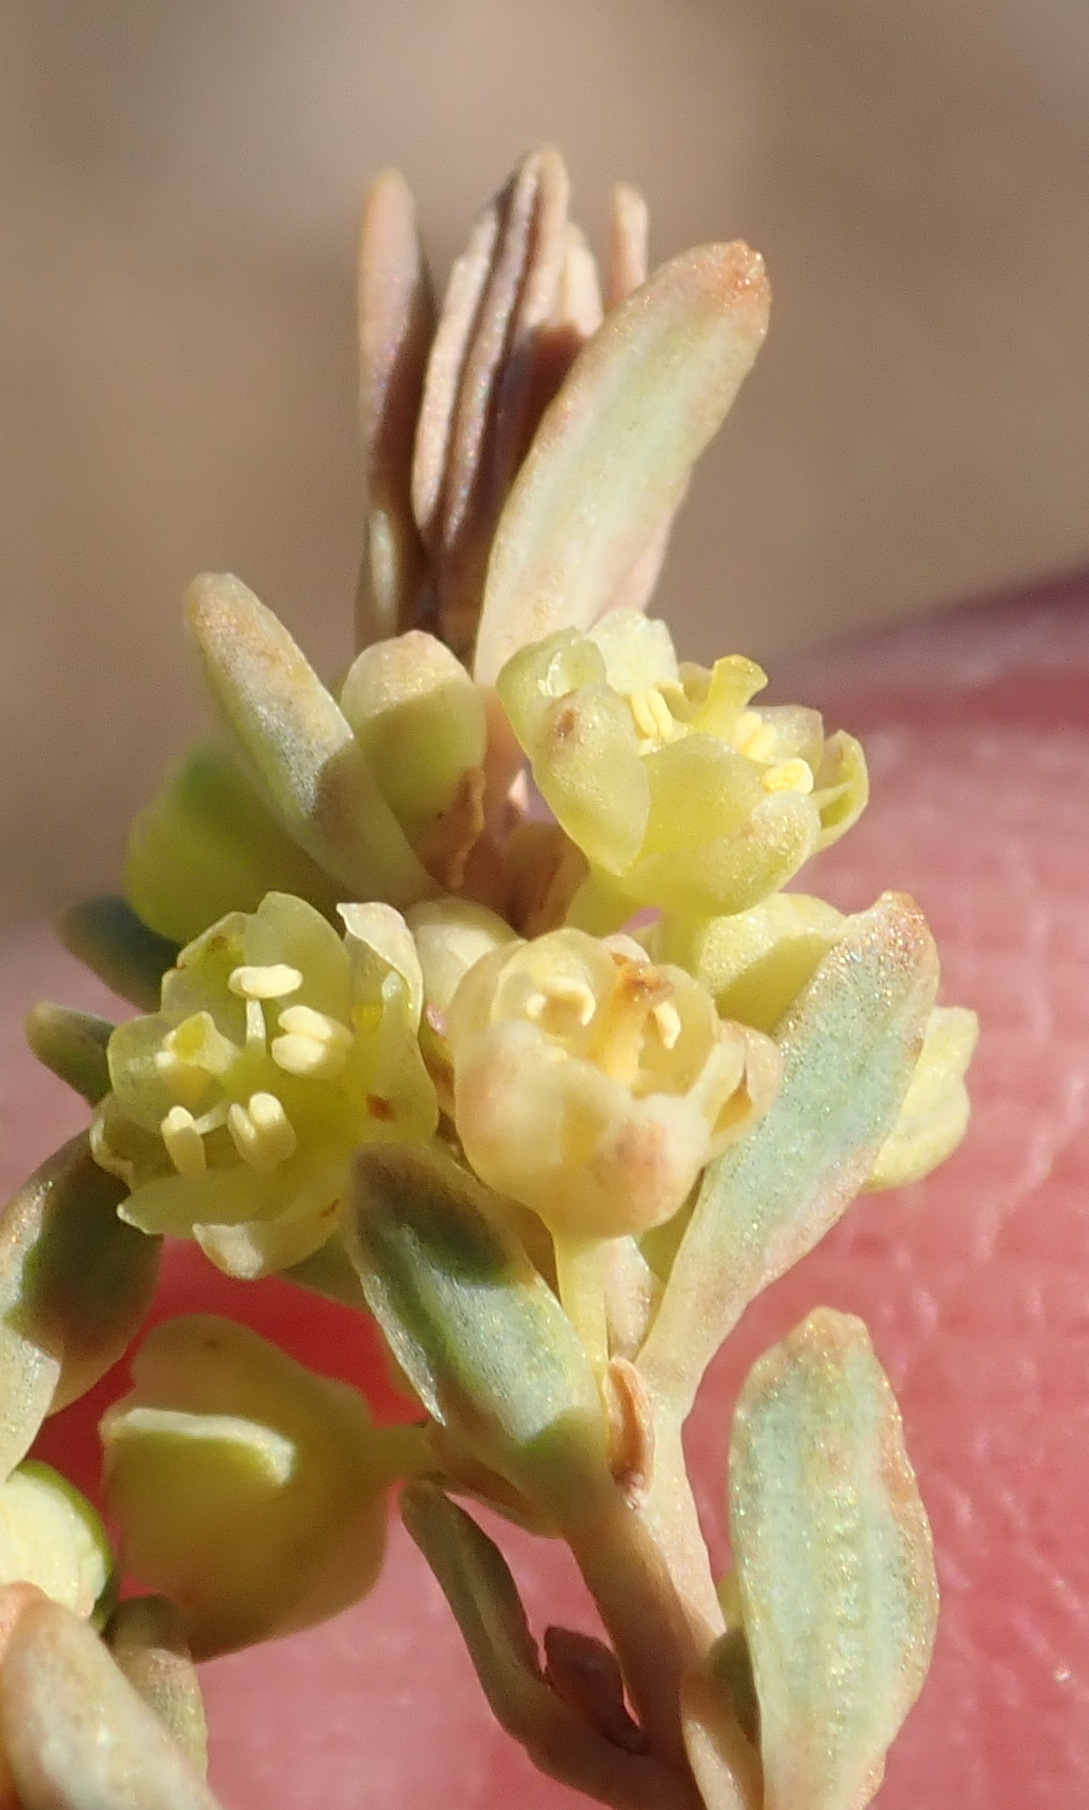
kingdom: Plantae
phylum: Tracheophyta
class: Magnoliopsida
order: Malpighiales
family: Peraceae
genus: Clutia
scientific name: Clutia laxa
